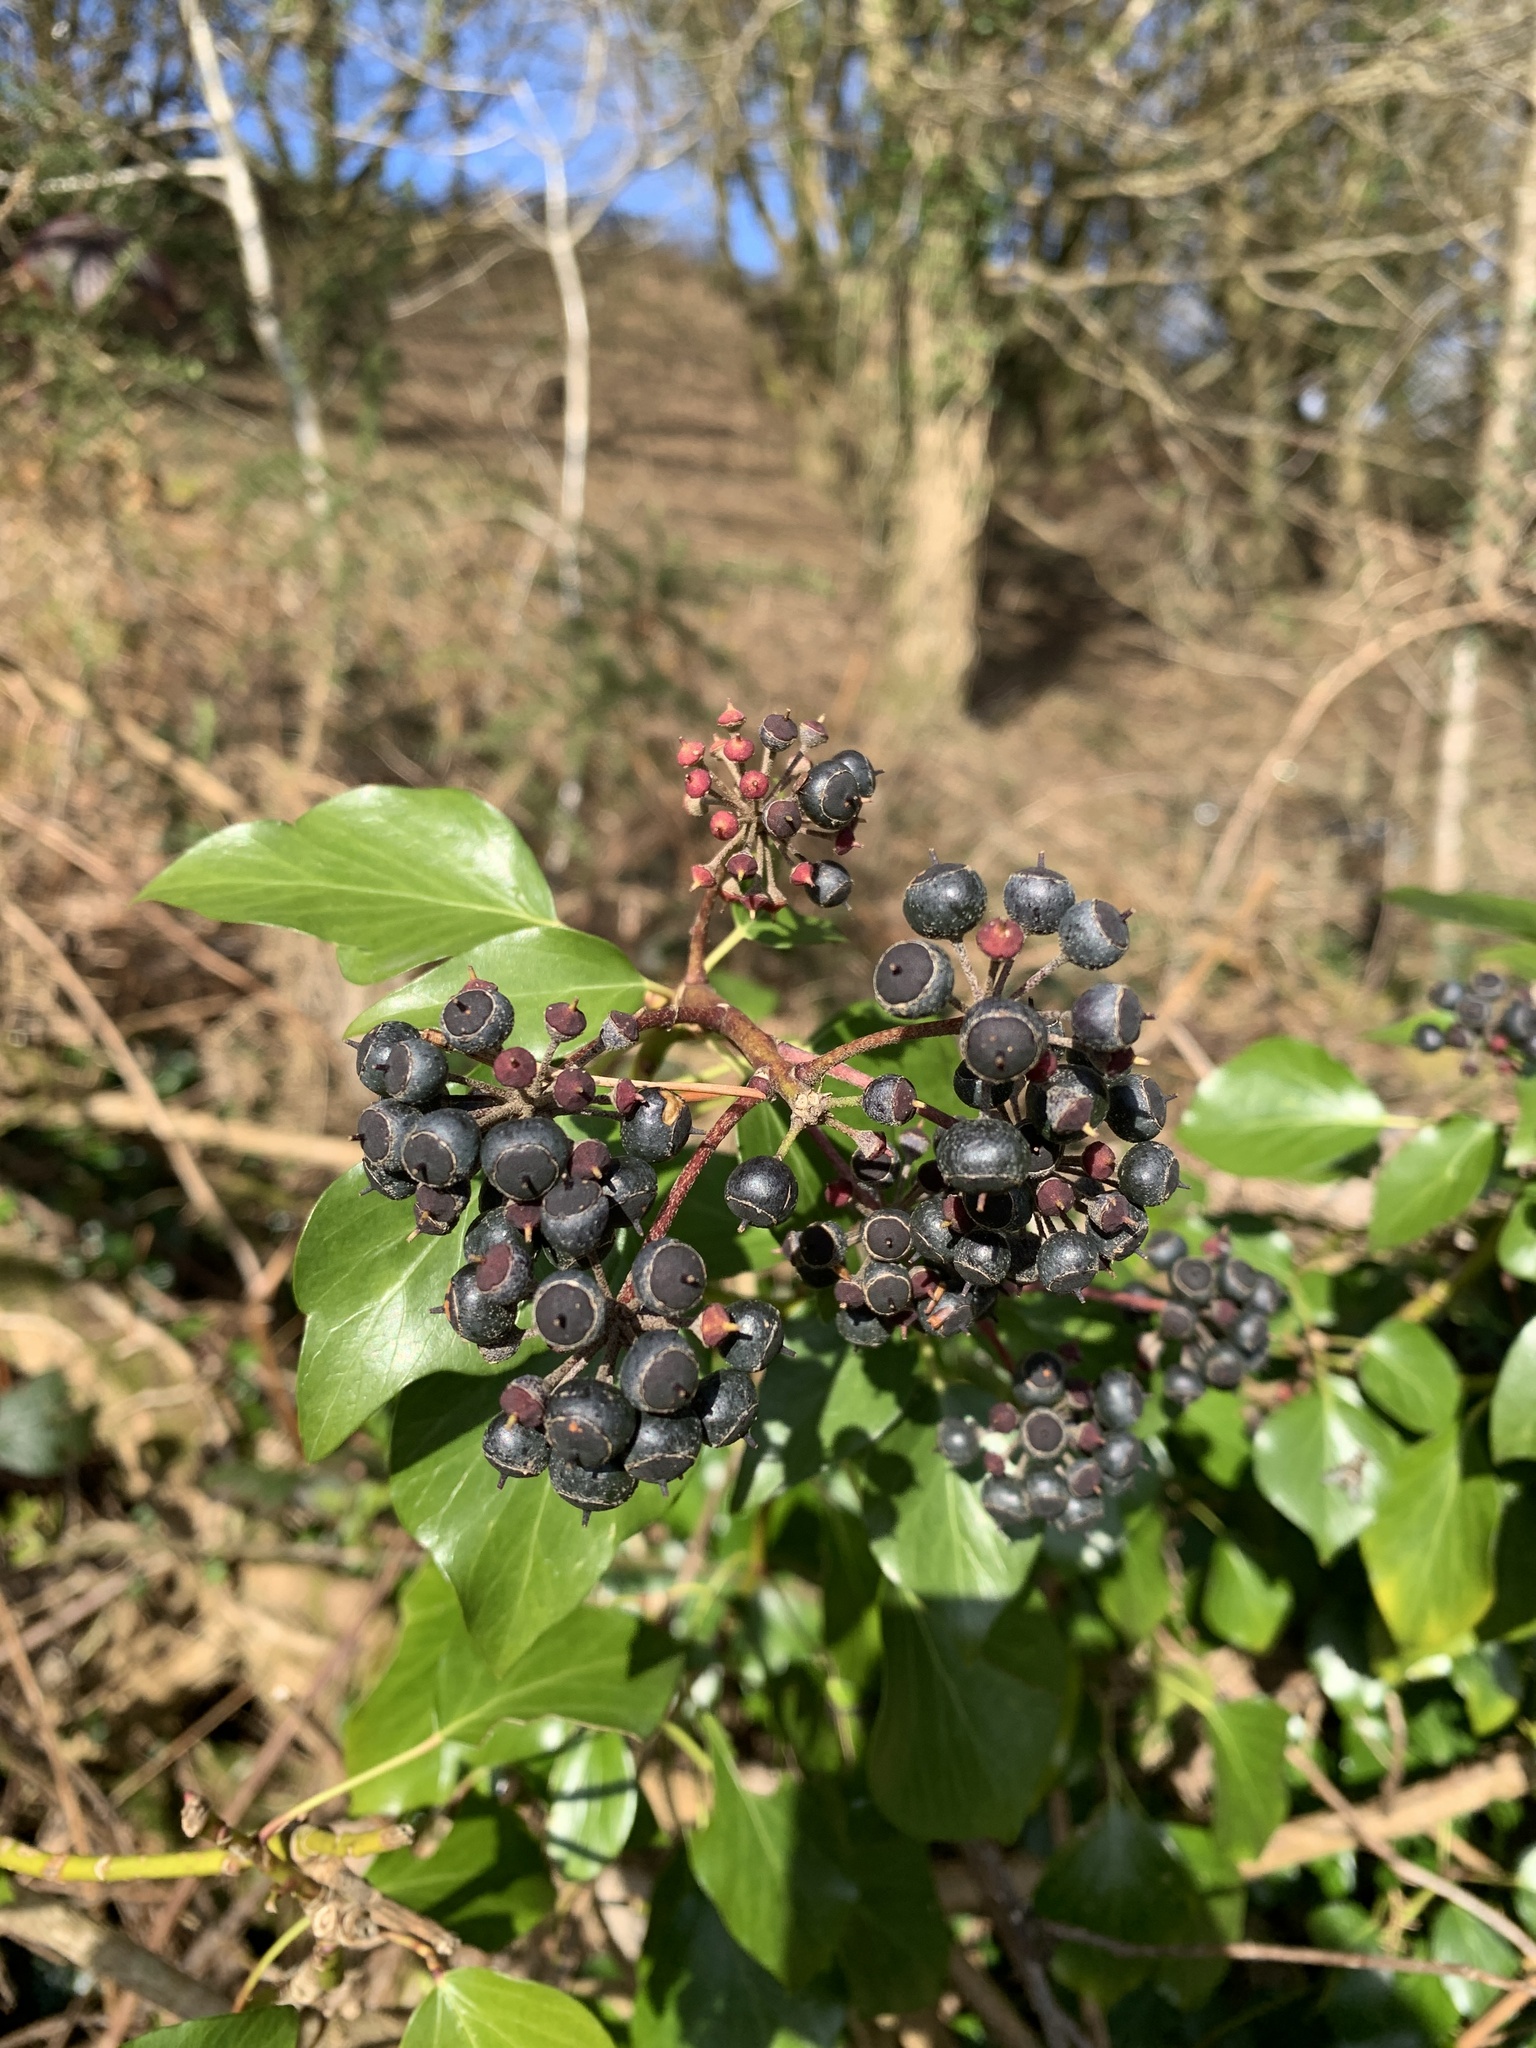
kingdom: Plantae
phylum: Tracheophyta
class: Magnoliopsida
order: Apiales
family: Araliaceae
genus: Hedera
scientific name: Hedera helix
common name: Ivy
